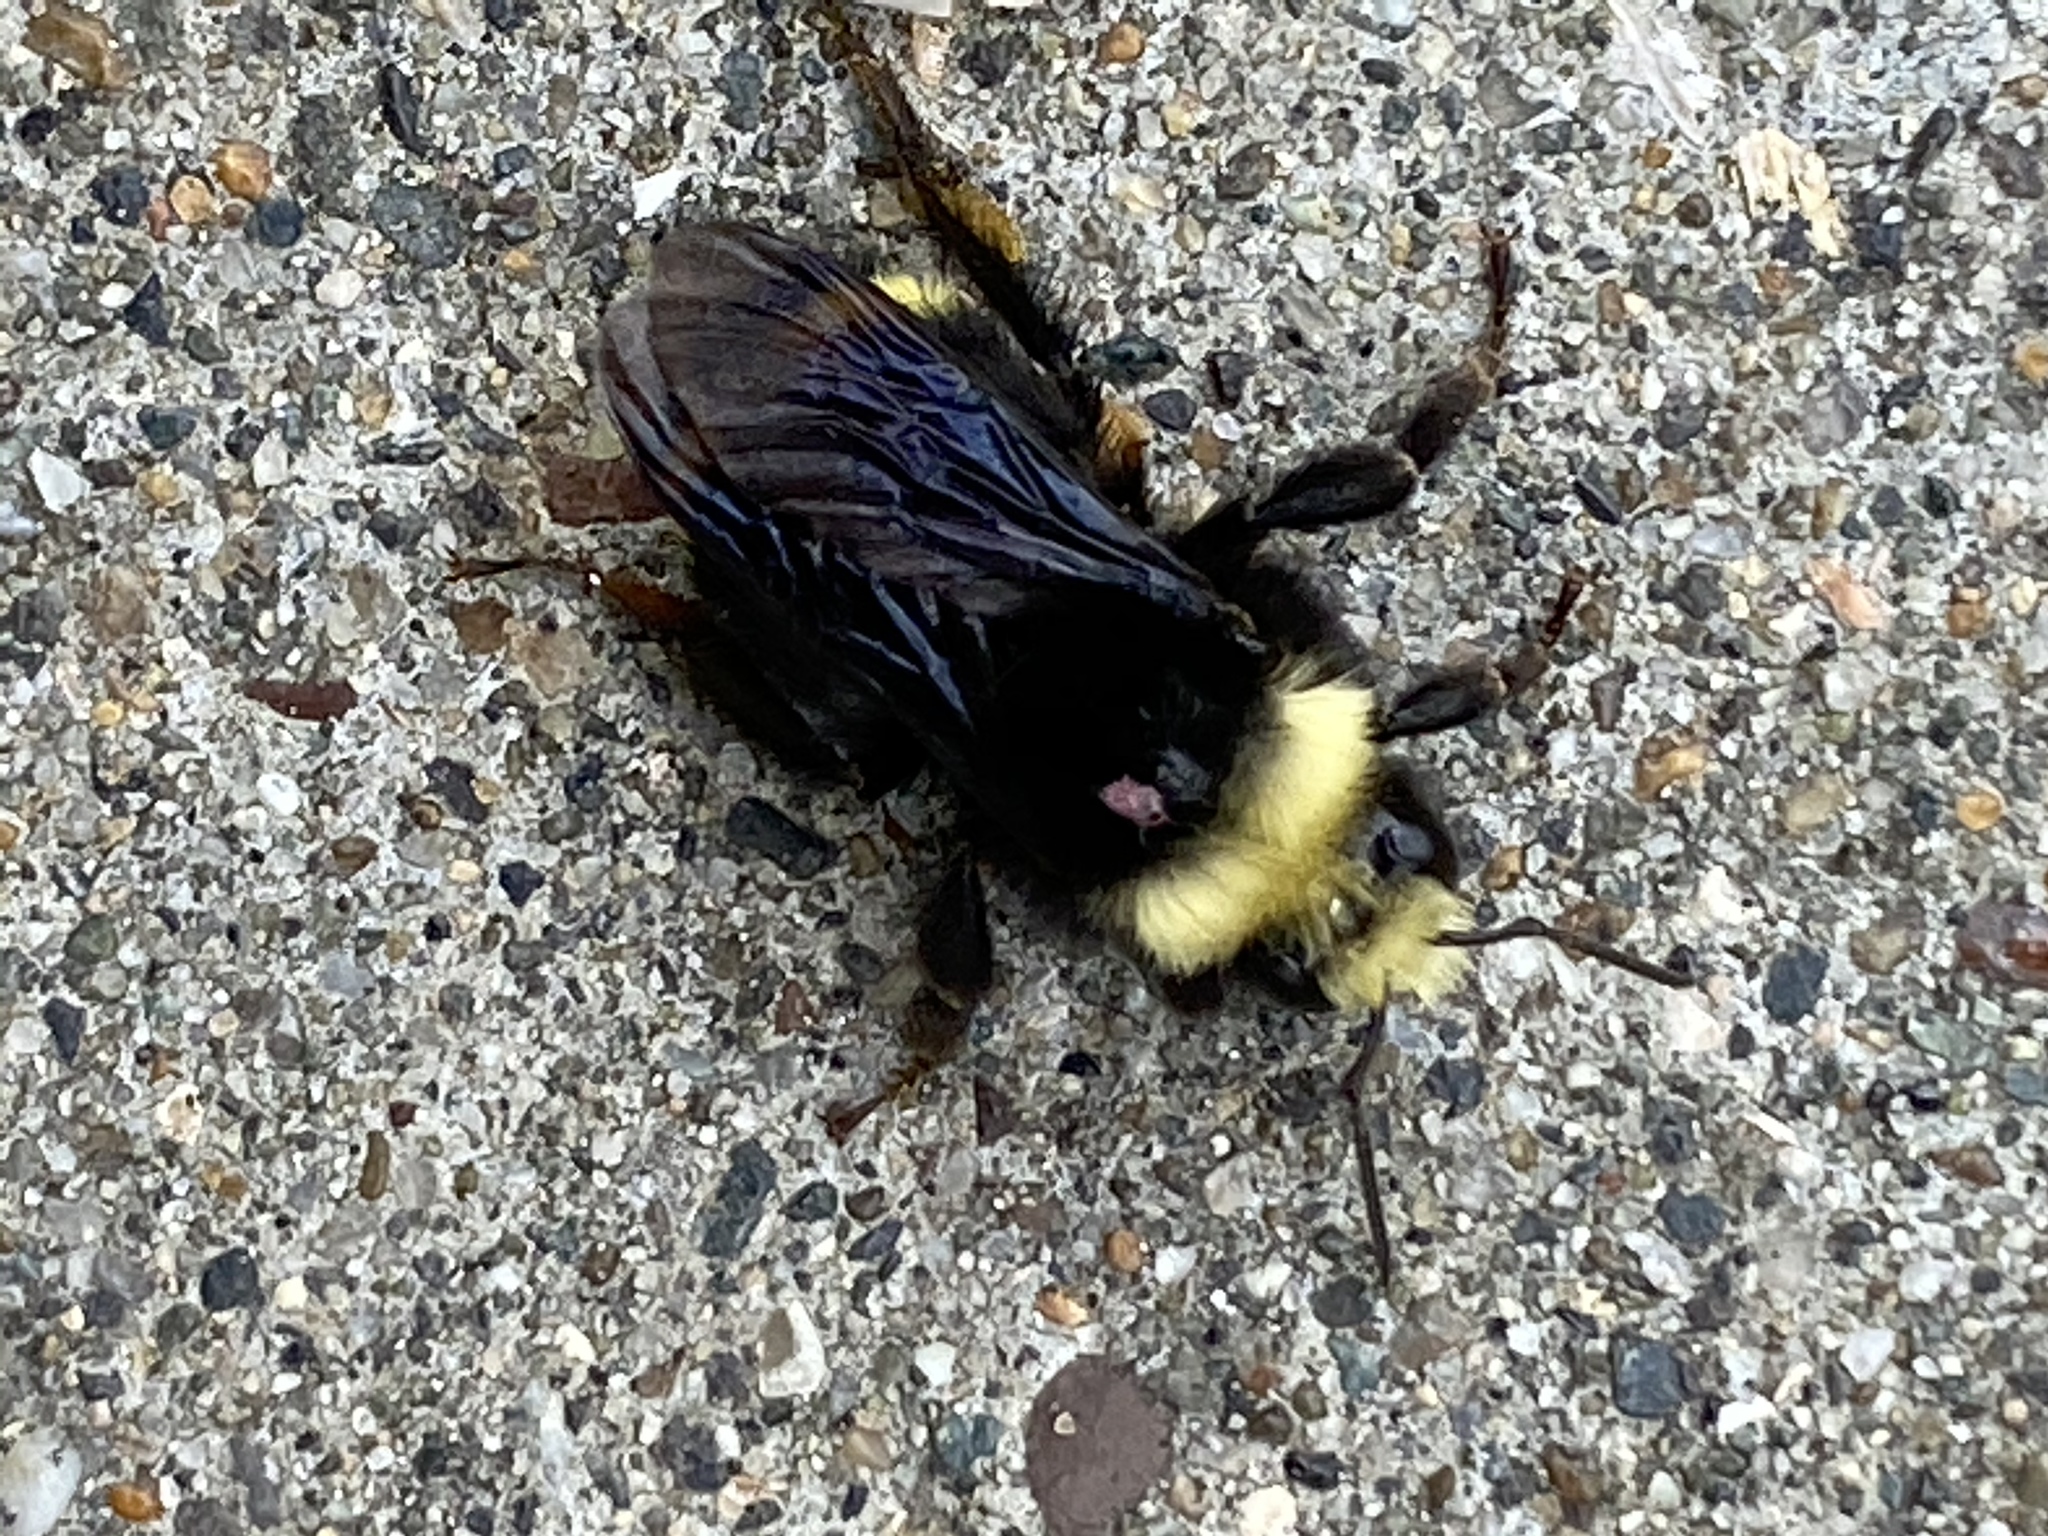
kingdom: Animalia
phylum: Arthropoda
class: Insecta
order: Hymenoptera
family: Apidae
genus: Bombus
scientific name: Bombus vosnesenskii
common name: Vosnesensky bumble bee
